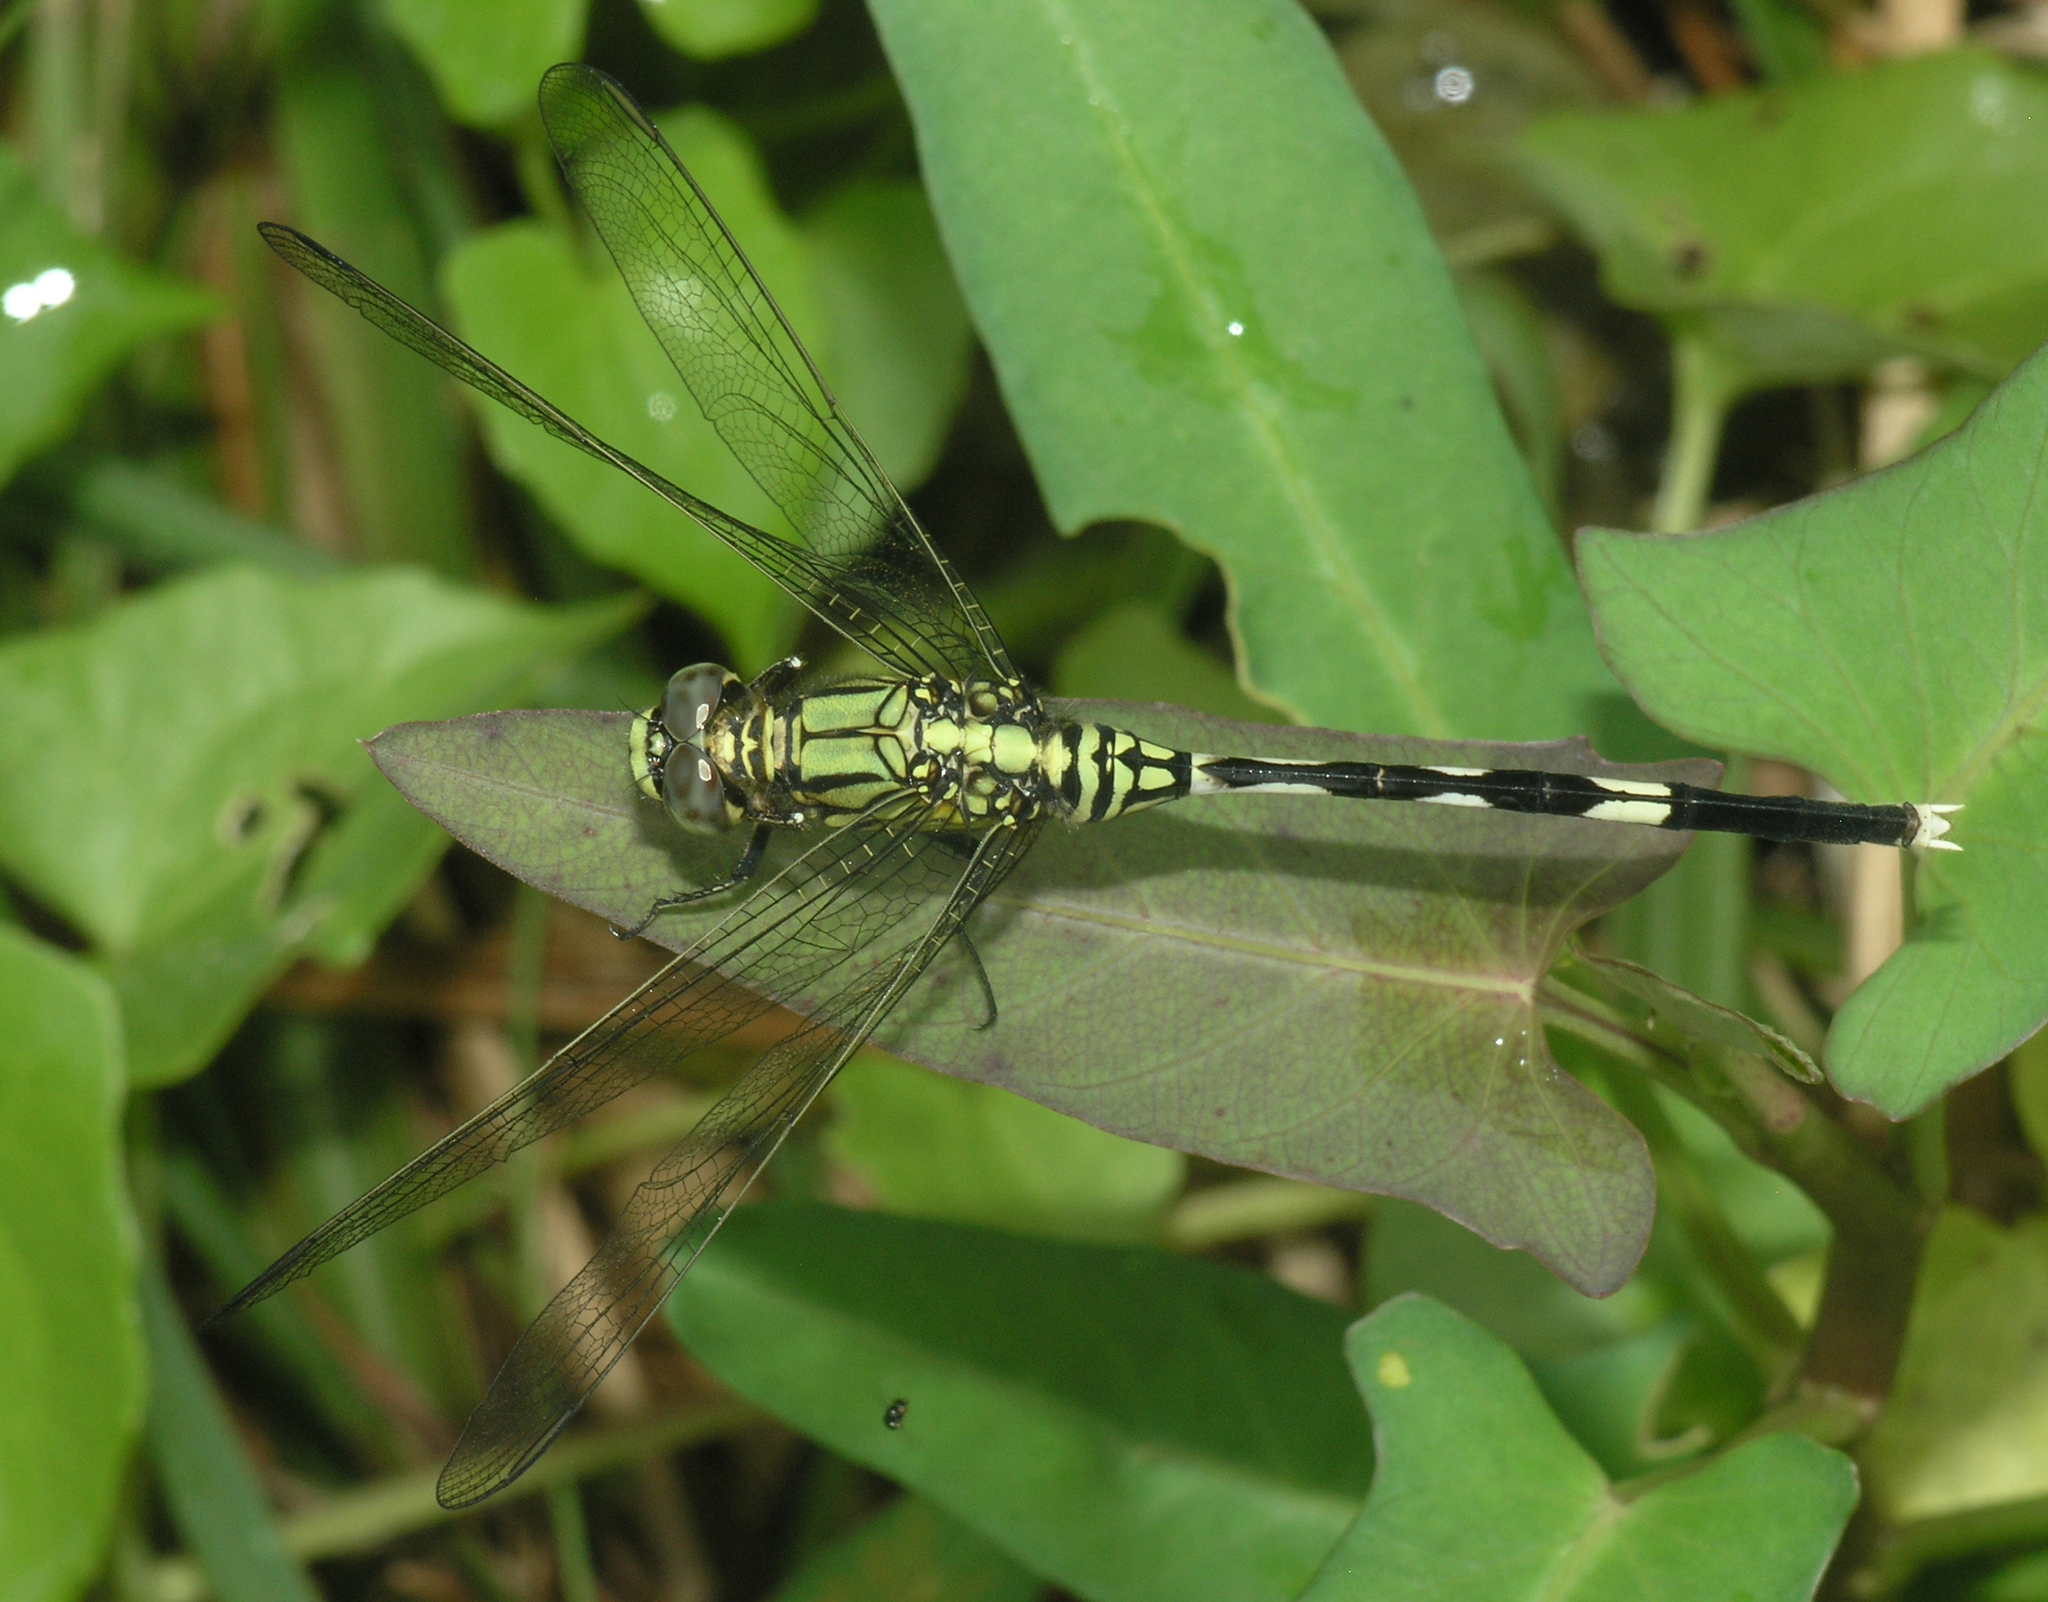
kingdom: Animalia
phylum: Arthropoda
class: Insecta
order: Odonata
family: Libellulidae
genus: Orthetrum
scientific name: Orthetrum sabina
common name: Slender skimmer
